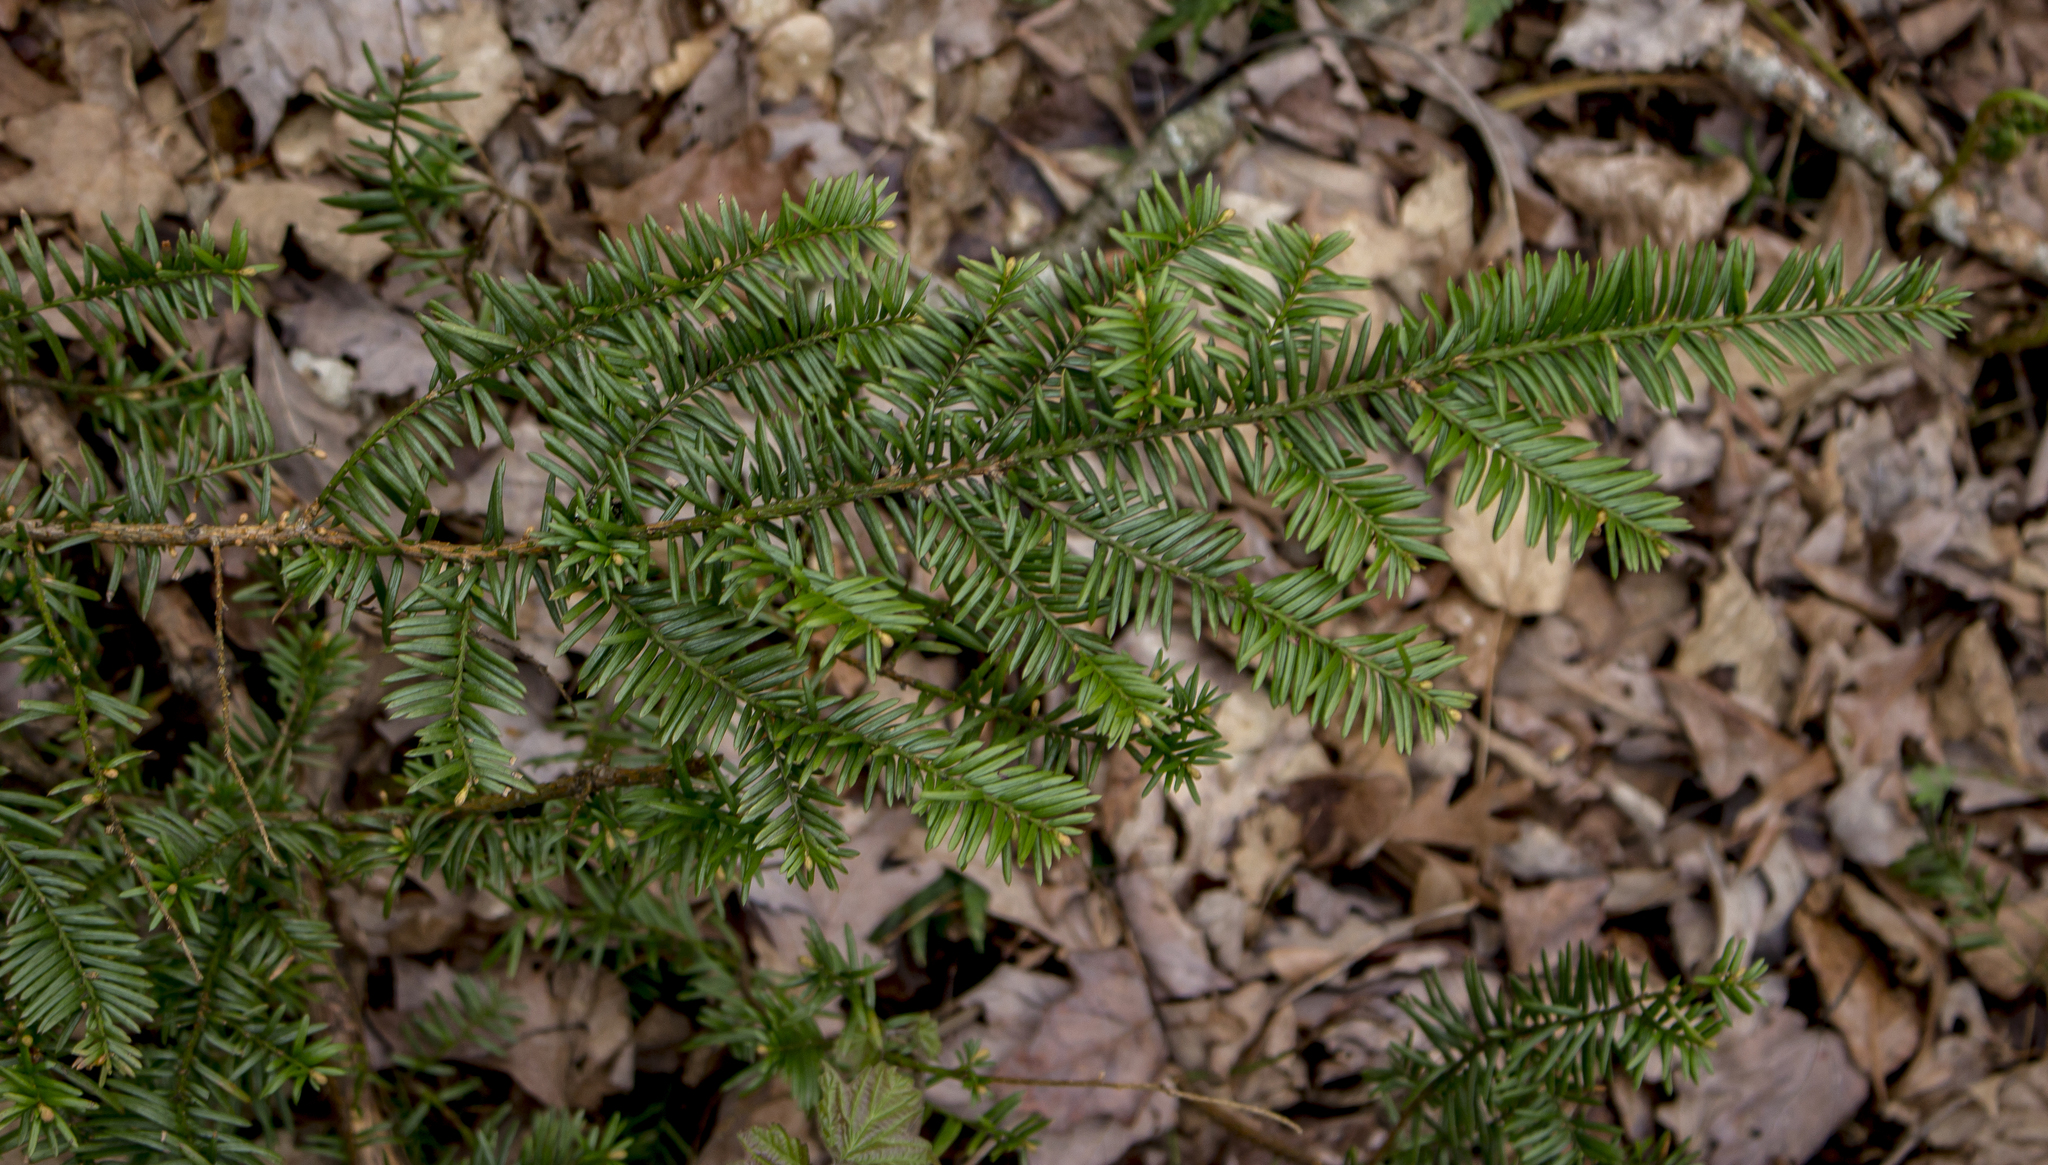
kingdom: Plantae
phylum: Tracheophyta
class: Pinopsida
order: Pinales
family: Taxaceae
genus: Taxus
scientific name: Taxus canadensis
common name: American yew
